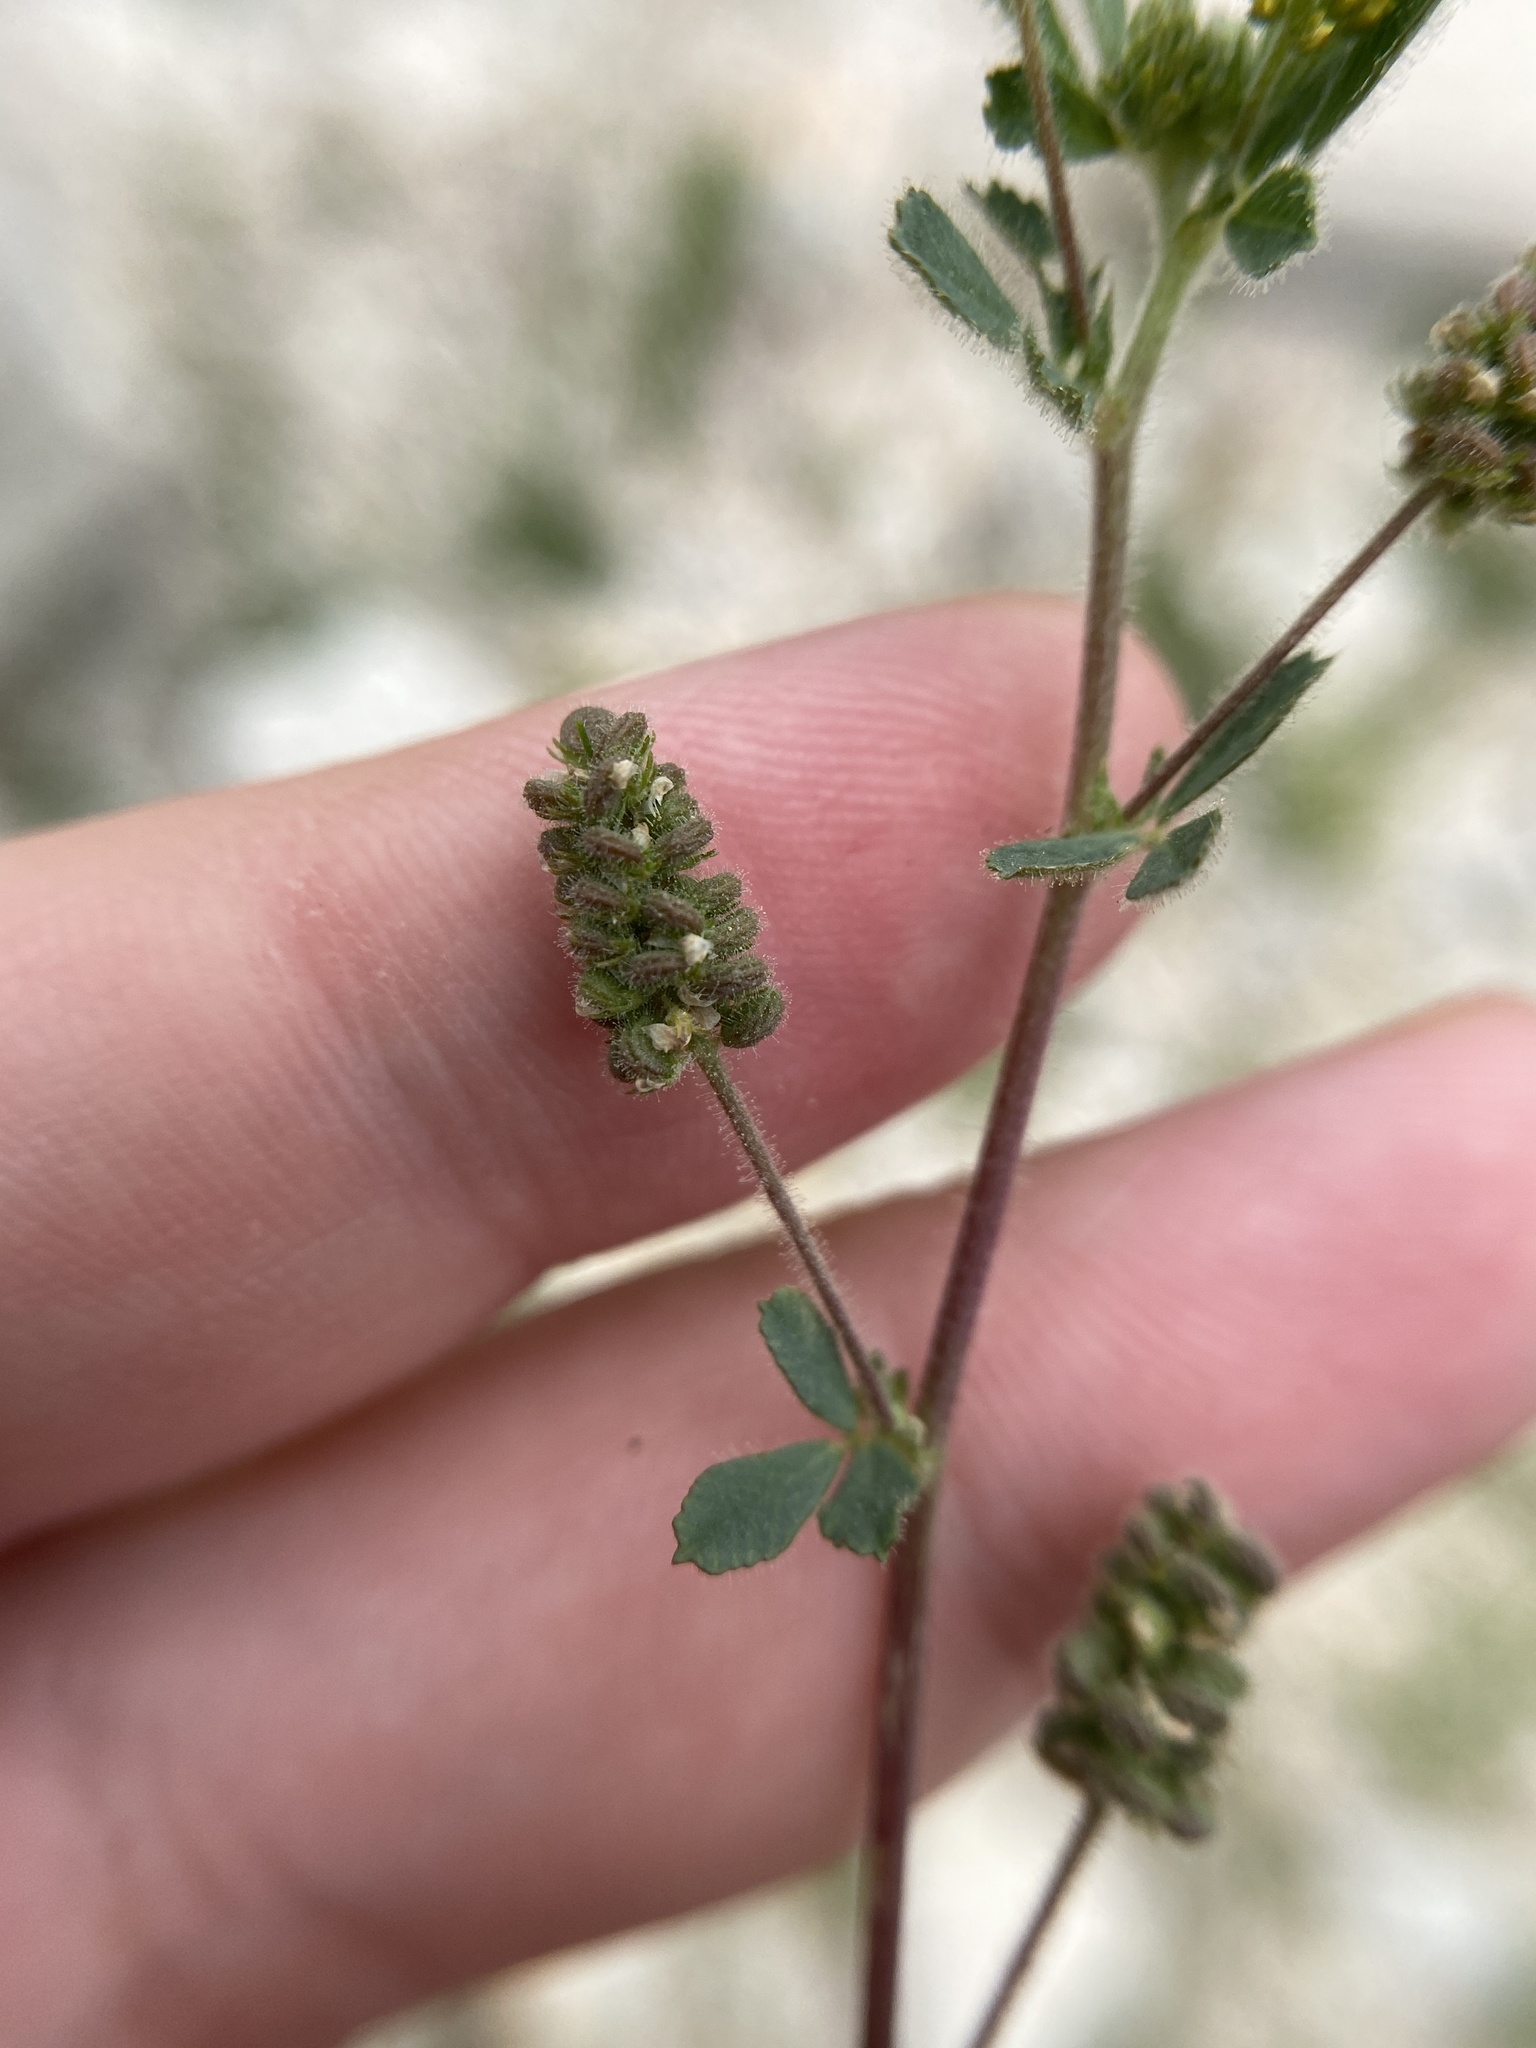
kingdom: Plantae
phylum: Tracheophyta
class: Magnoliopsida
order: Fabales
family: Fabaceae
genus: Medicago
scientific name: Medicago lupulina
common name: Black medick
